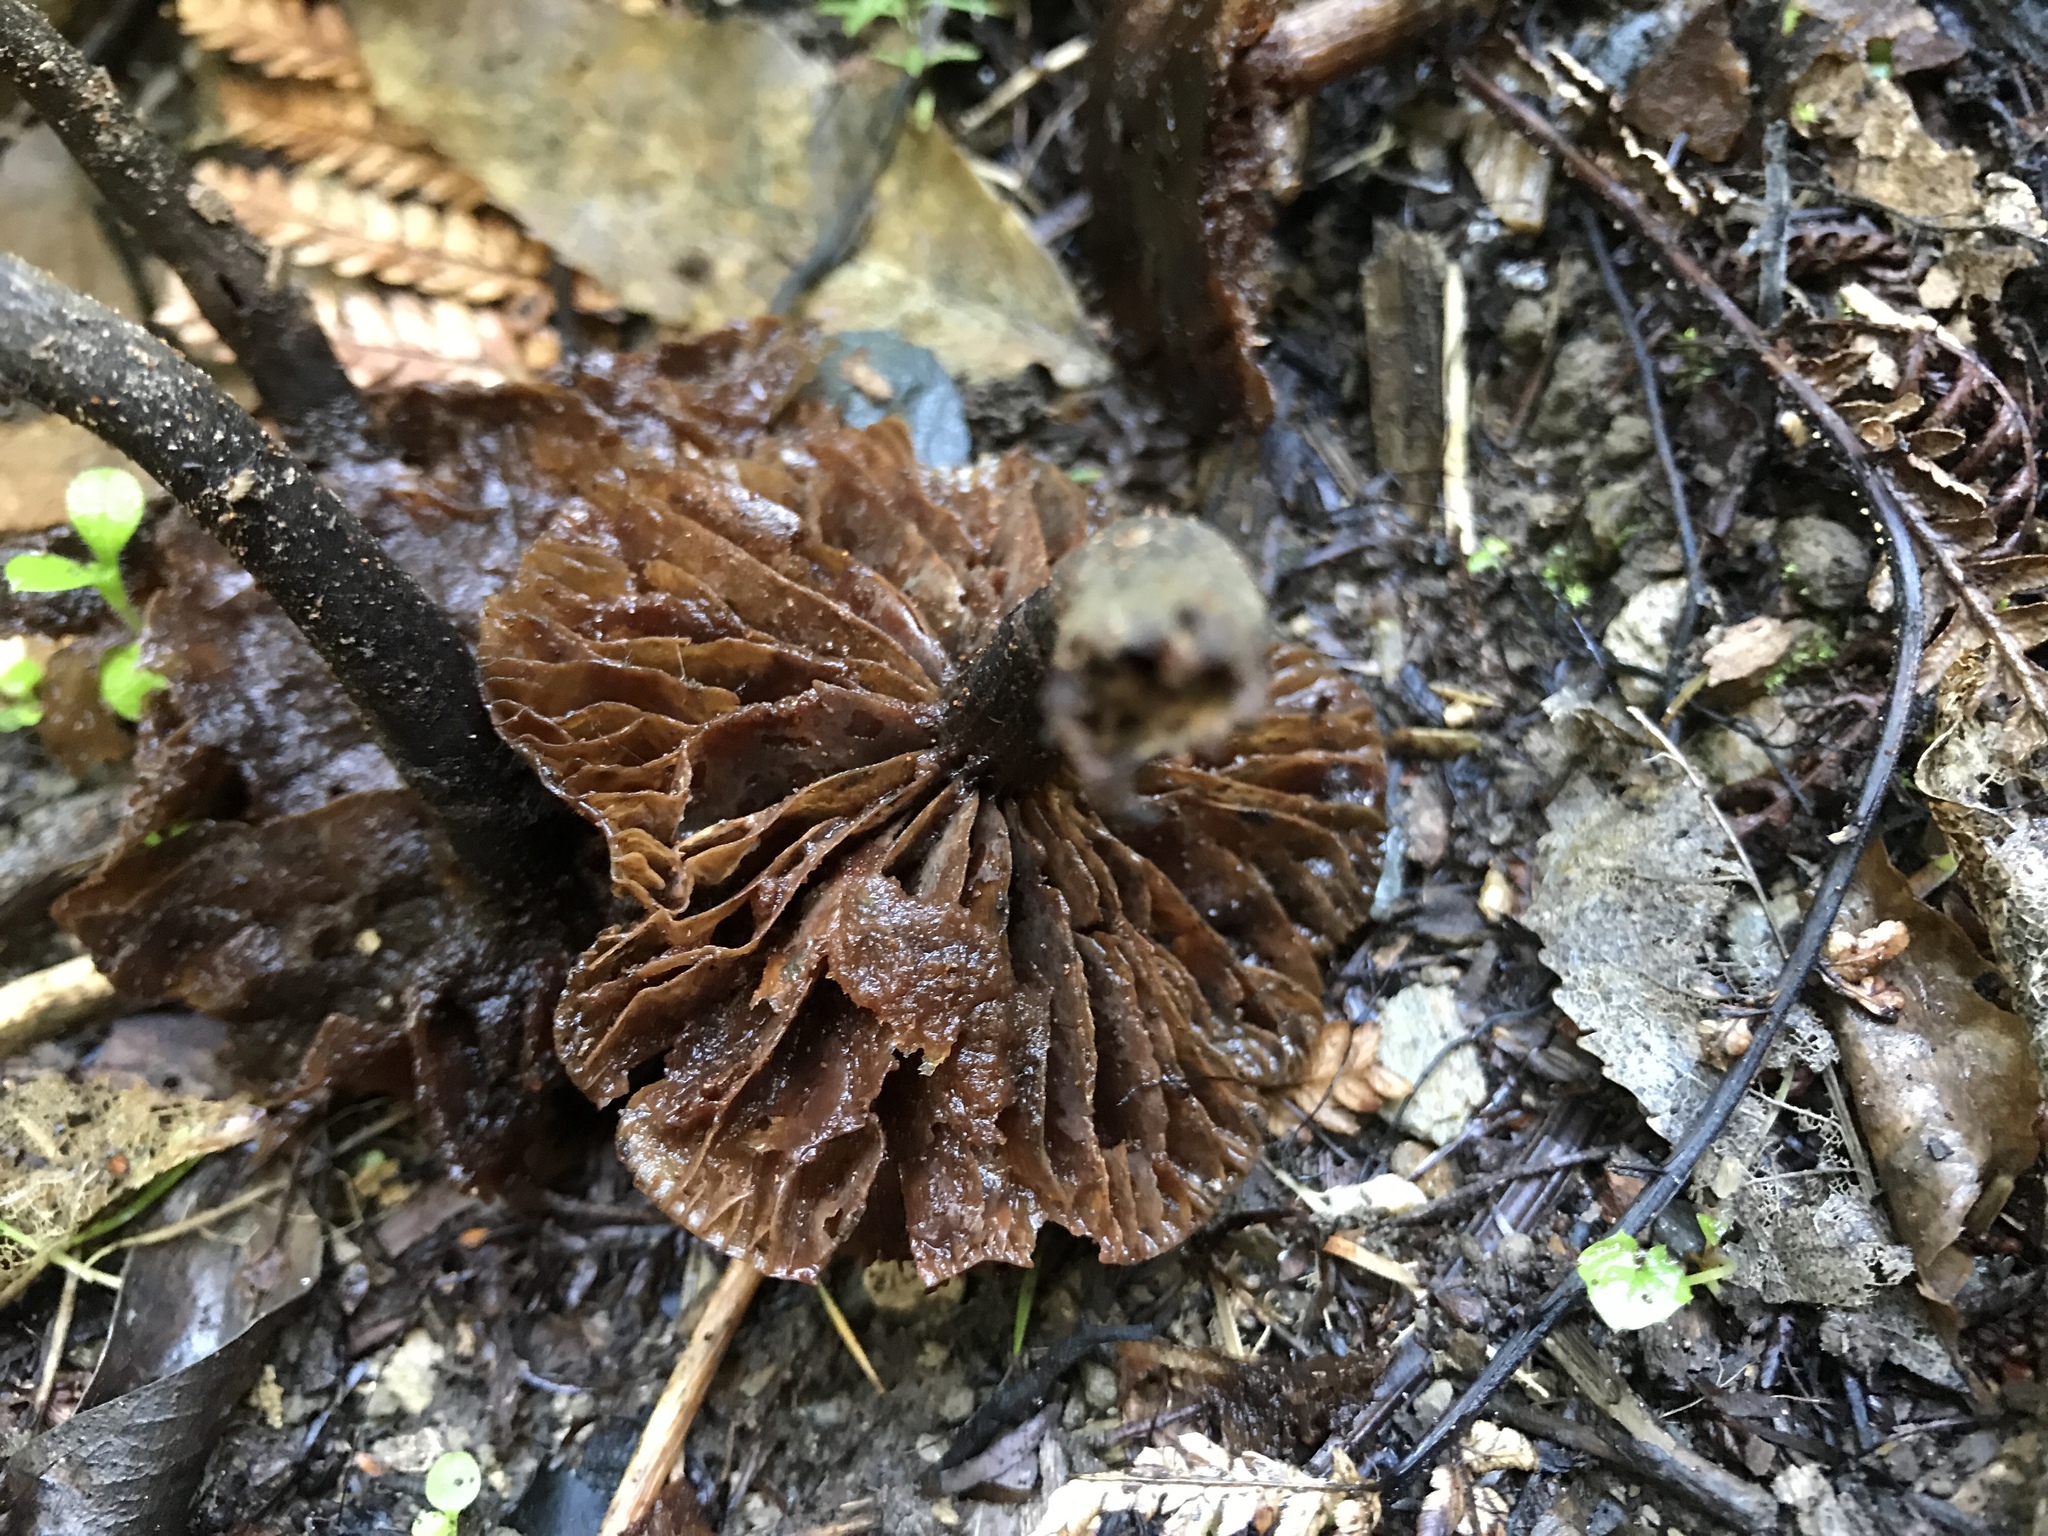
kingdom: Fungi
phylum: Basidiomycota
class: Agaricomycetes
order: Agaricales
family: Strophariaceae
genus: Kuehneromyces
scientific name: Kuehneromyces brunneoalbescens
